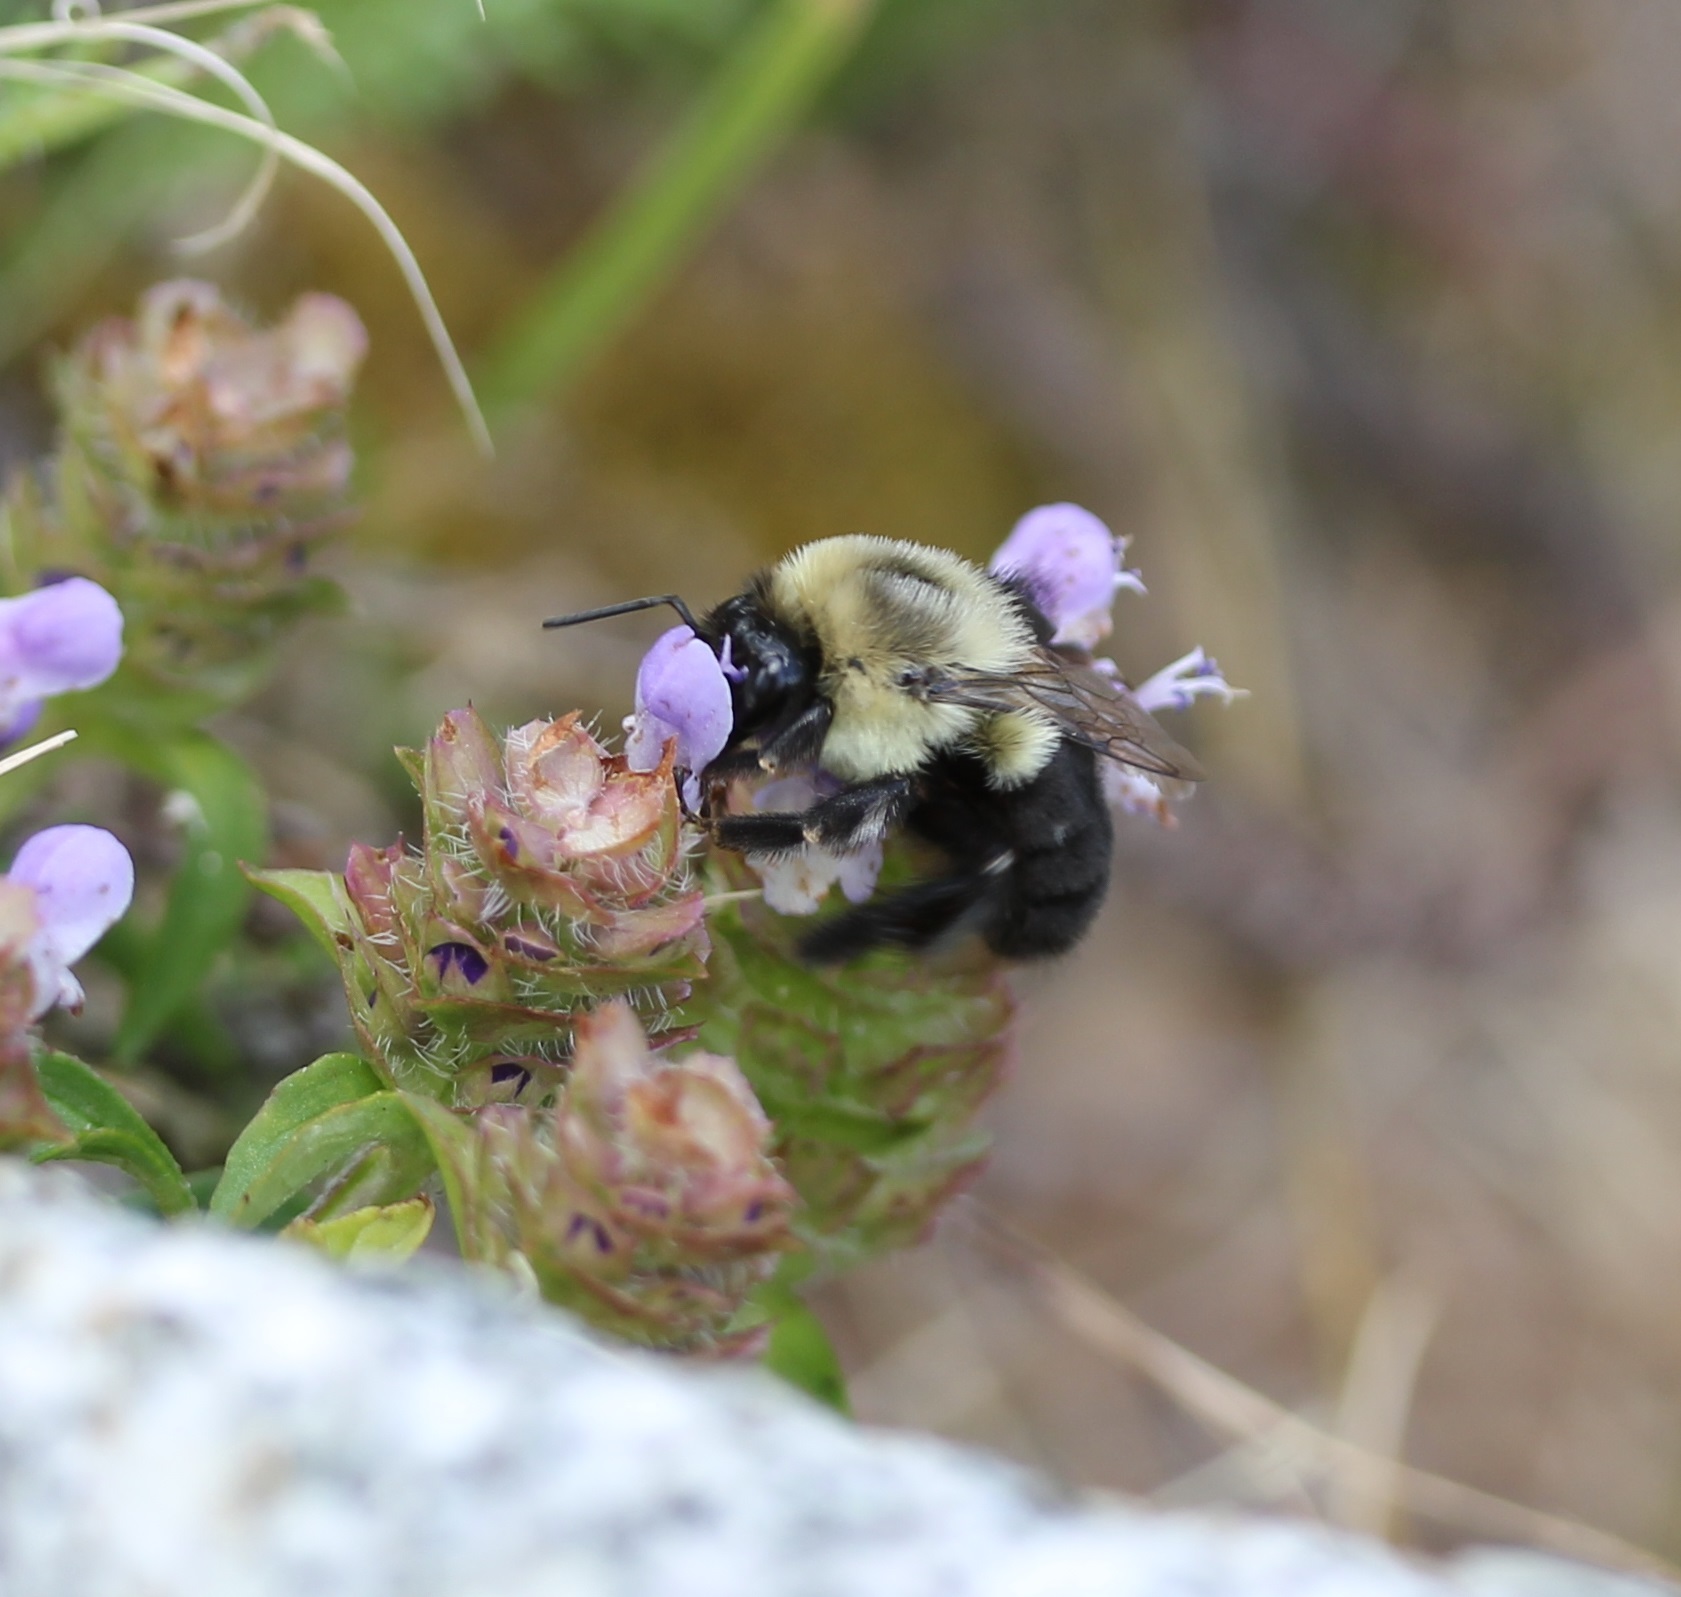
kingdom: Animalia
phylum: Arthropoda
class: Insecta
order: Hymenoptera
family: Apidae
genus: Bombus
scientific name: Bombus impatiens
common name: Common eastern bumble bee
